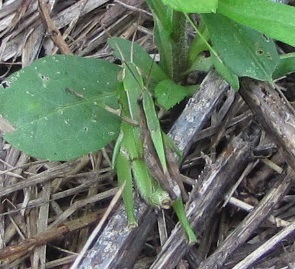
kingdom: Animalia
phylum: Arthropoda
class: Insecta
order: Orthoptera
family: Acrididae
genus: Dichromorpha
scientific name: Dichromorpha viridis
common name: Short-winged green grasshopper
